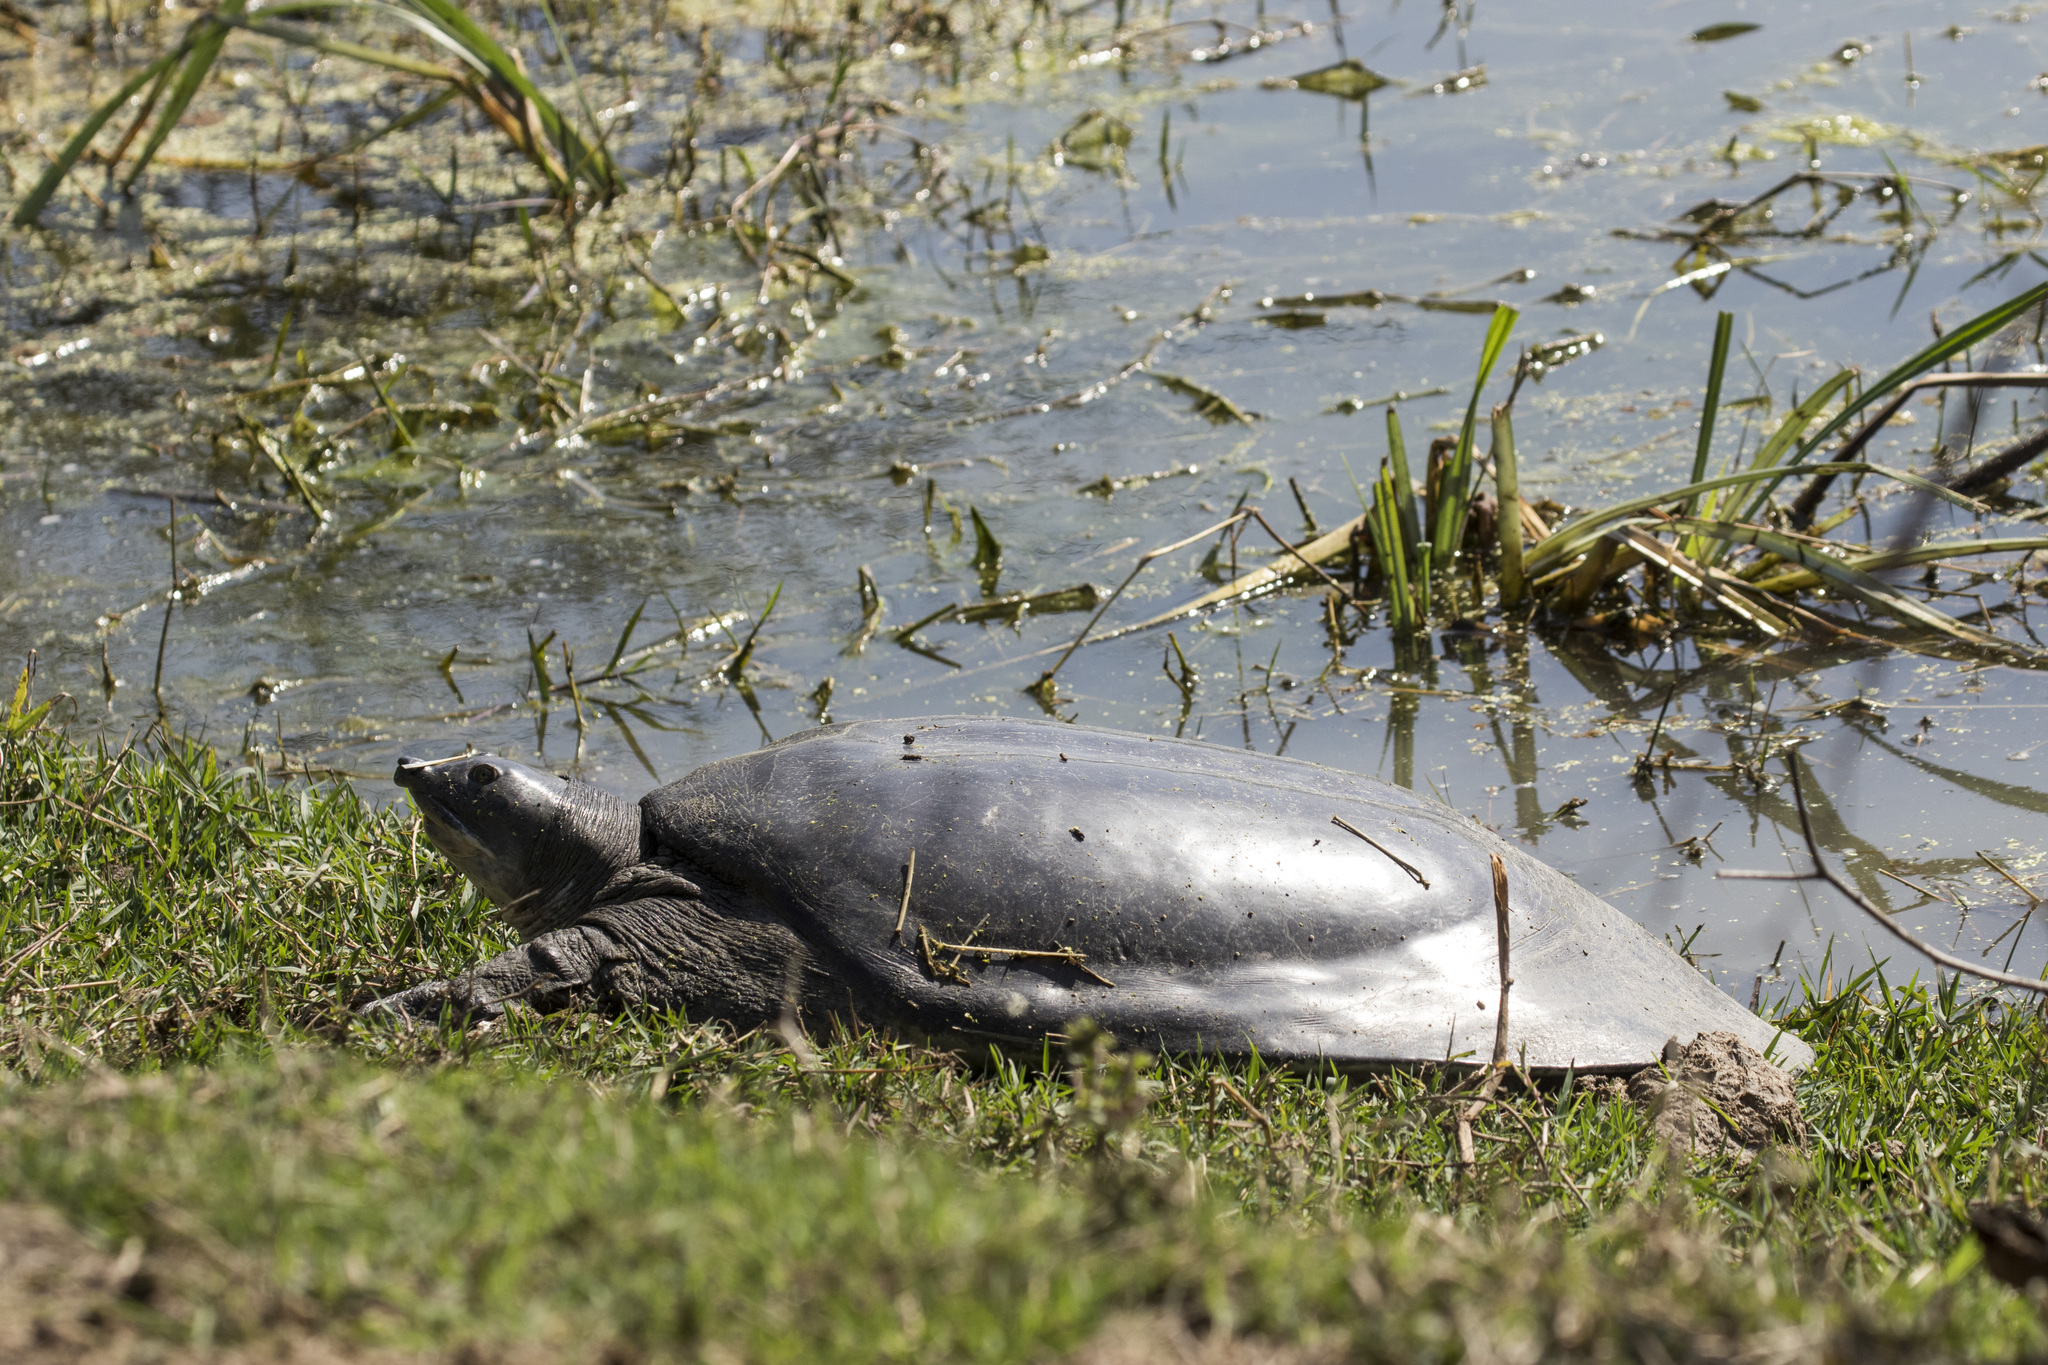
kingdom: Animalia
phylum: Chordata
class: Testudines
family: Trionychidae
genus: Nilssonia
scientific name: Nilssonia gangetica
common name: Indian softshell turtle
